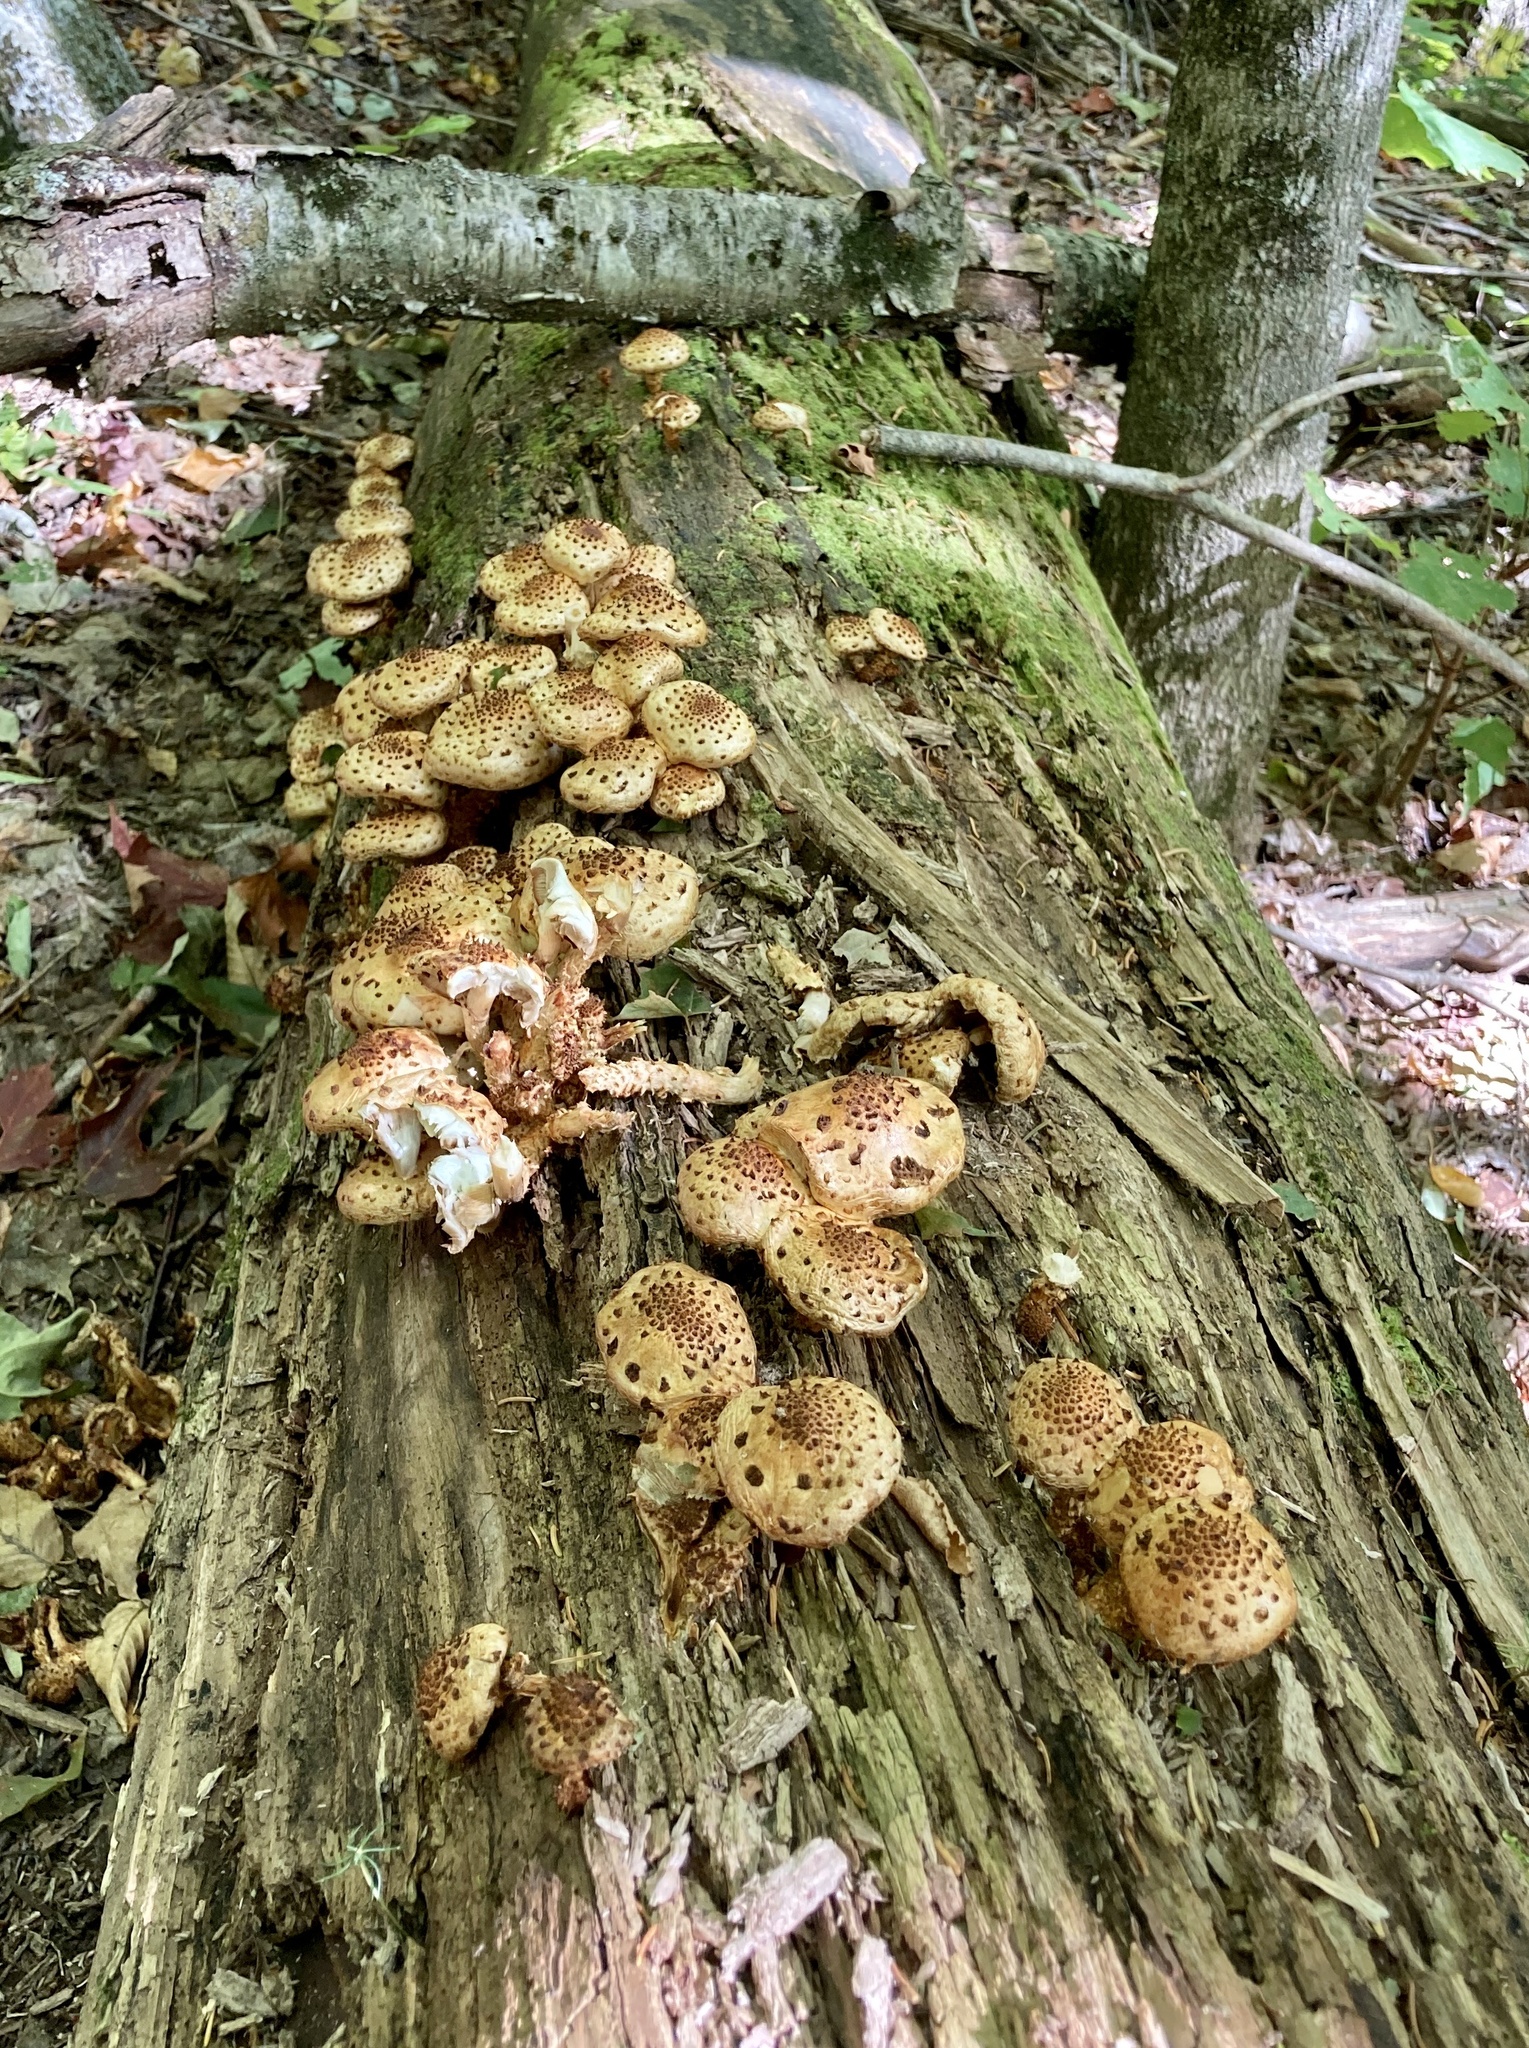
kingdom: Fungi
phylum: Basidiomycota
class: Agaricomycetes
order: Agaricales
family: Strophariaceae
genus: Pholiota
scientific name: Pholiota squarrosoides
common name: Sharp-scaly pholiota
